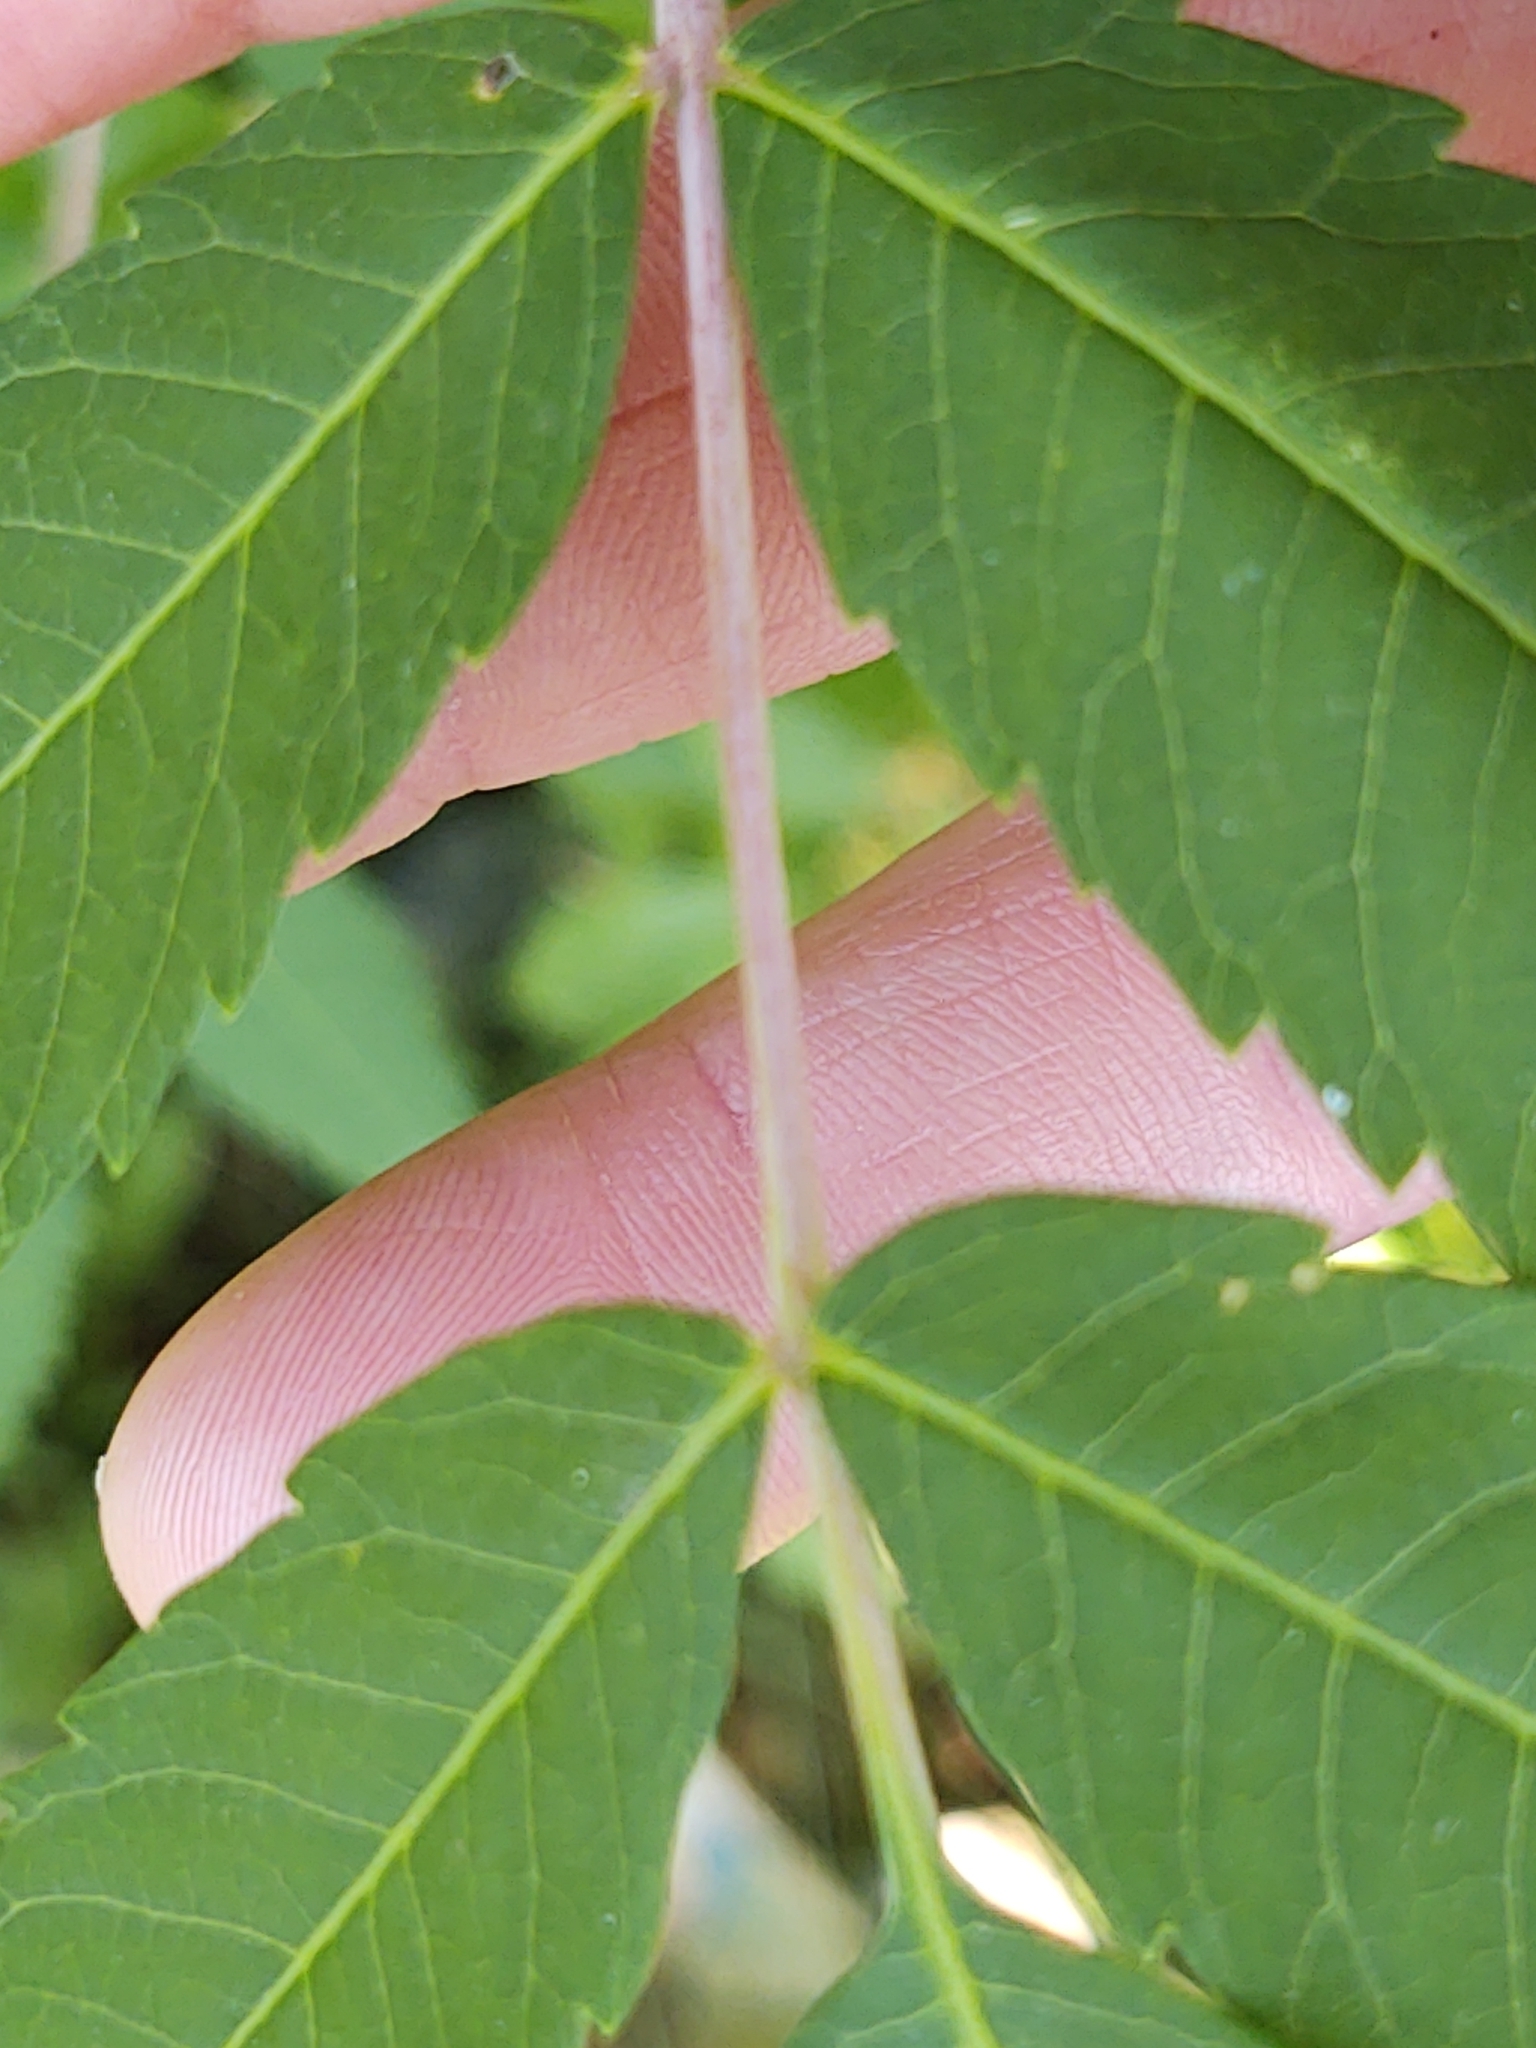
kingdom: Plantae
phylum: Tracheophyta
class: Magnoliopsida
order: Sapindales
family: Anacardiaceae
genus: Rhus
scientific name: Rhus glabra
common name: Scarlet sumac
